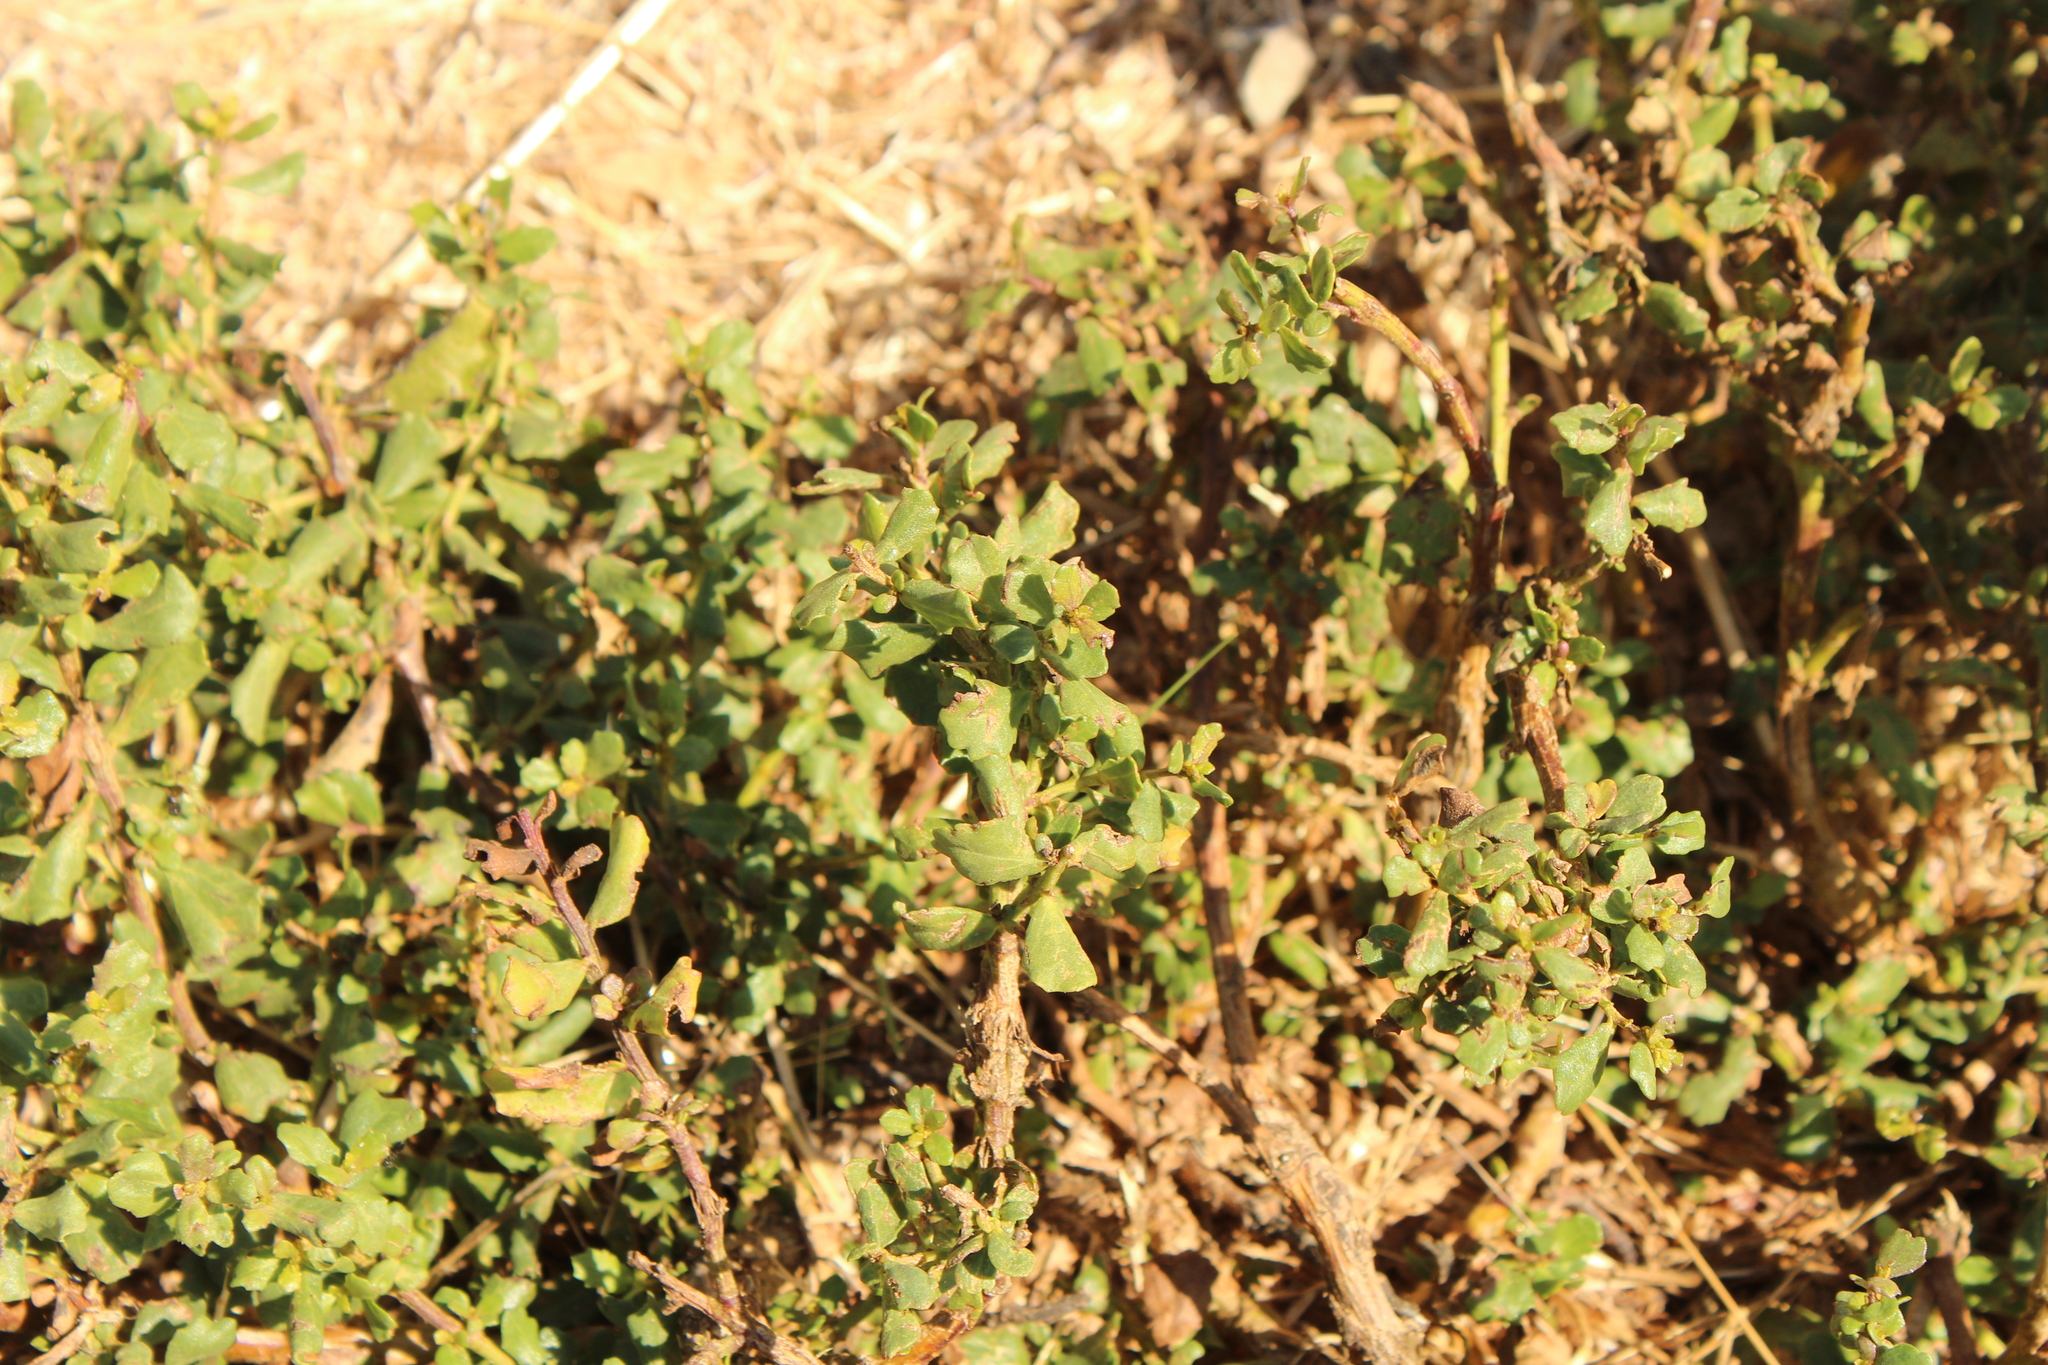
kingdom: Plantae
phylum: Tracheophyta
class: Magnoliopsida
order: Asterales
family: Asteraceae
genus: Baccharis
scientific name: Baccharis pilularis
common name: Coyotebrush
